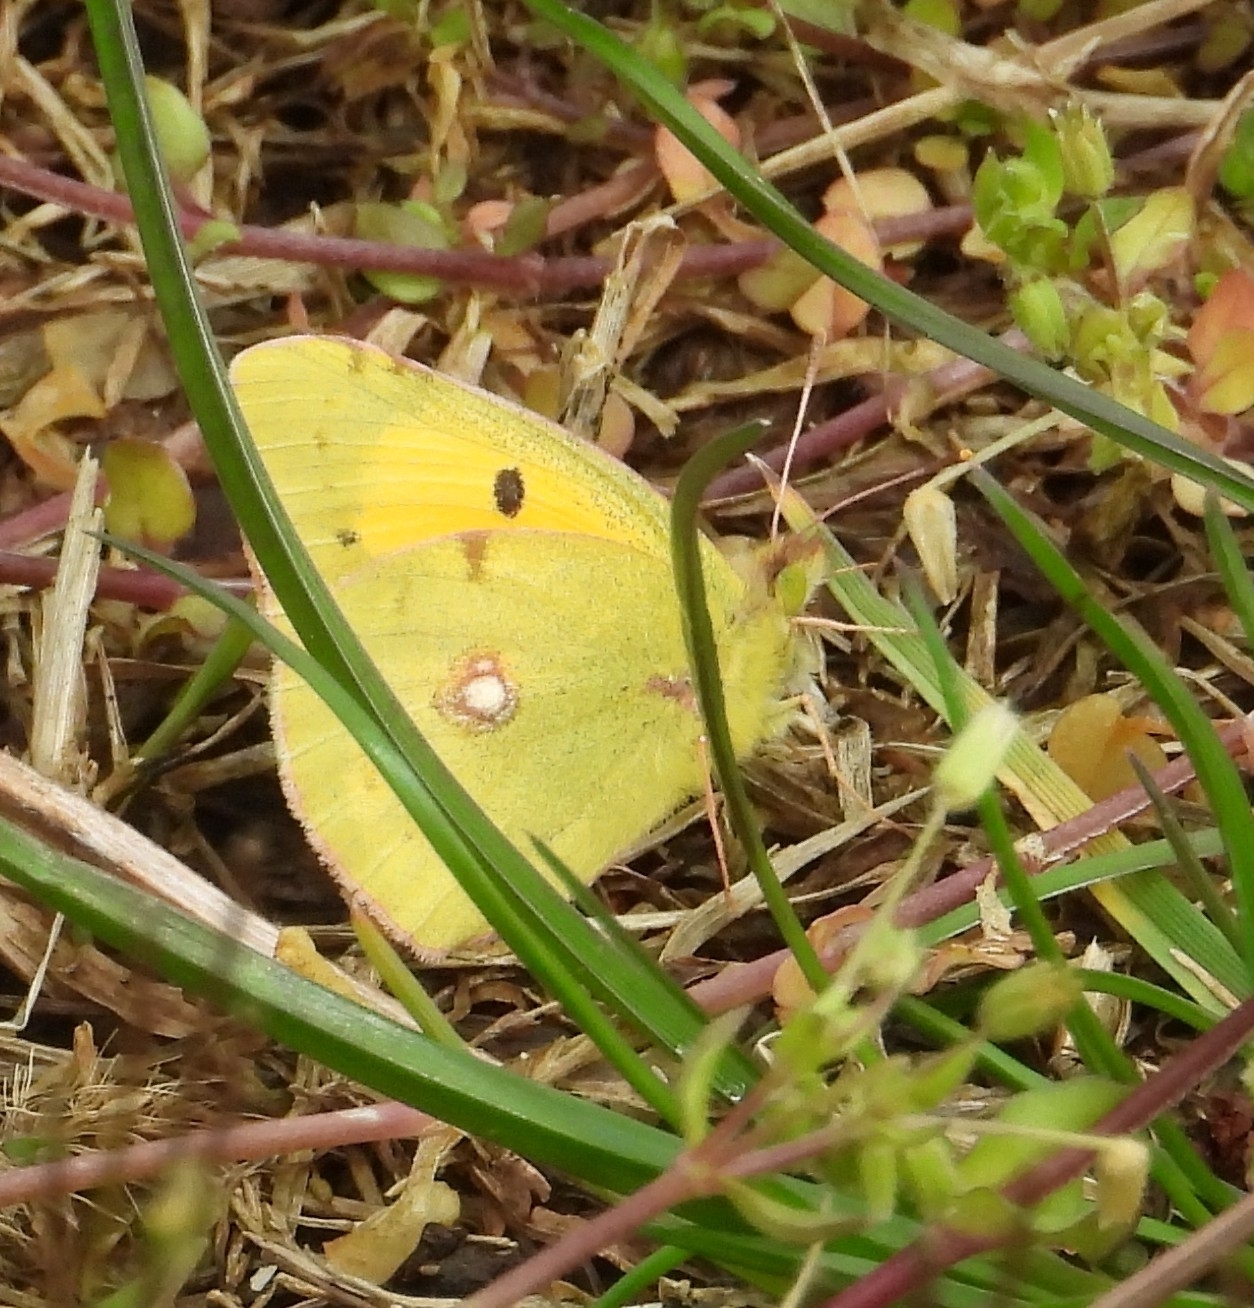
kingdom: Animalia
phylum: Arthropoda
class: Insecta
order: Lepidoptera
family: Pieridae
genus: Colias
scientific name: Colias croceus
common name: Clouded yellow
